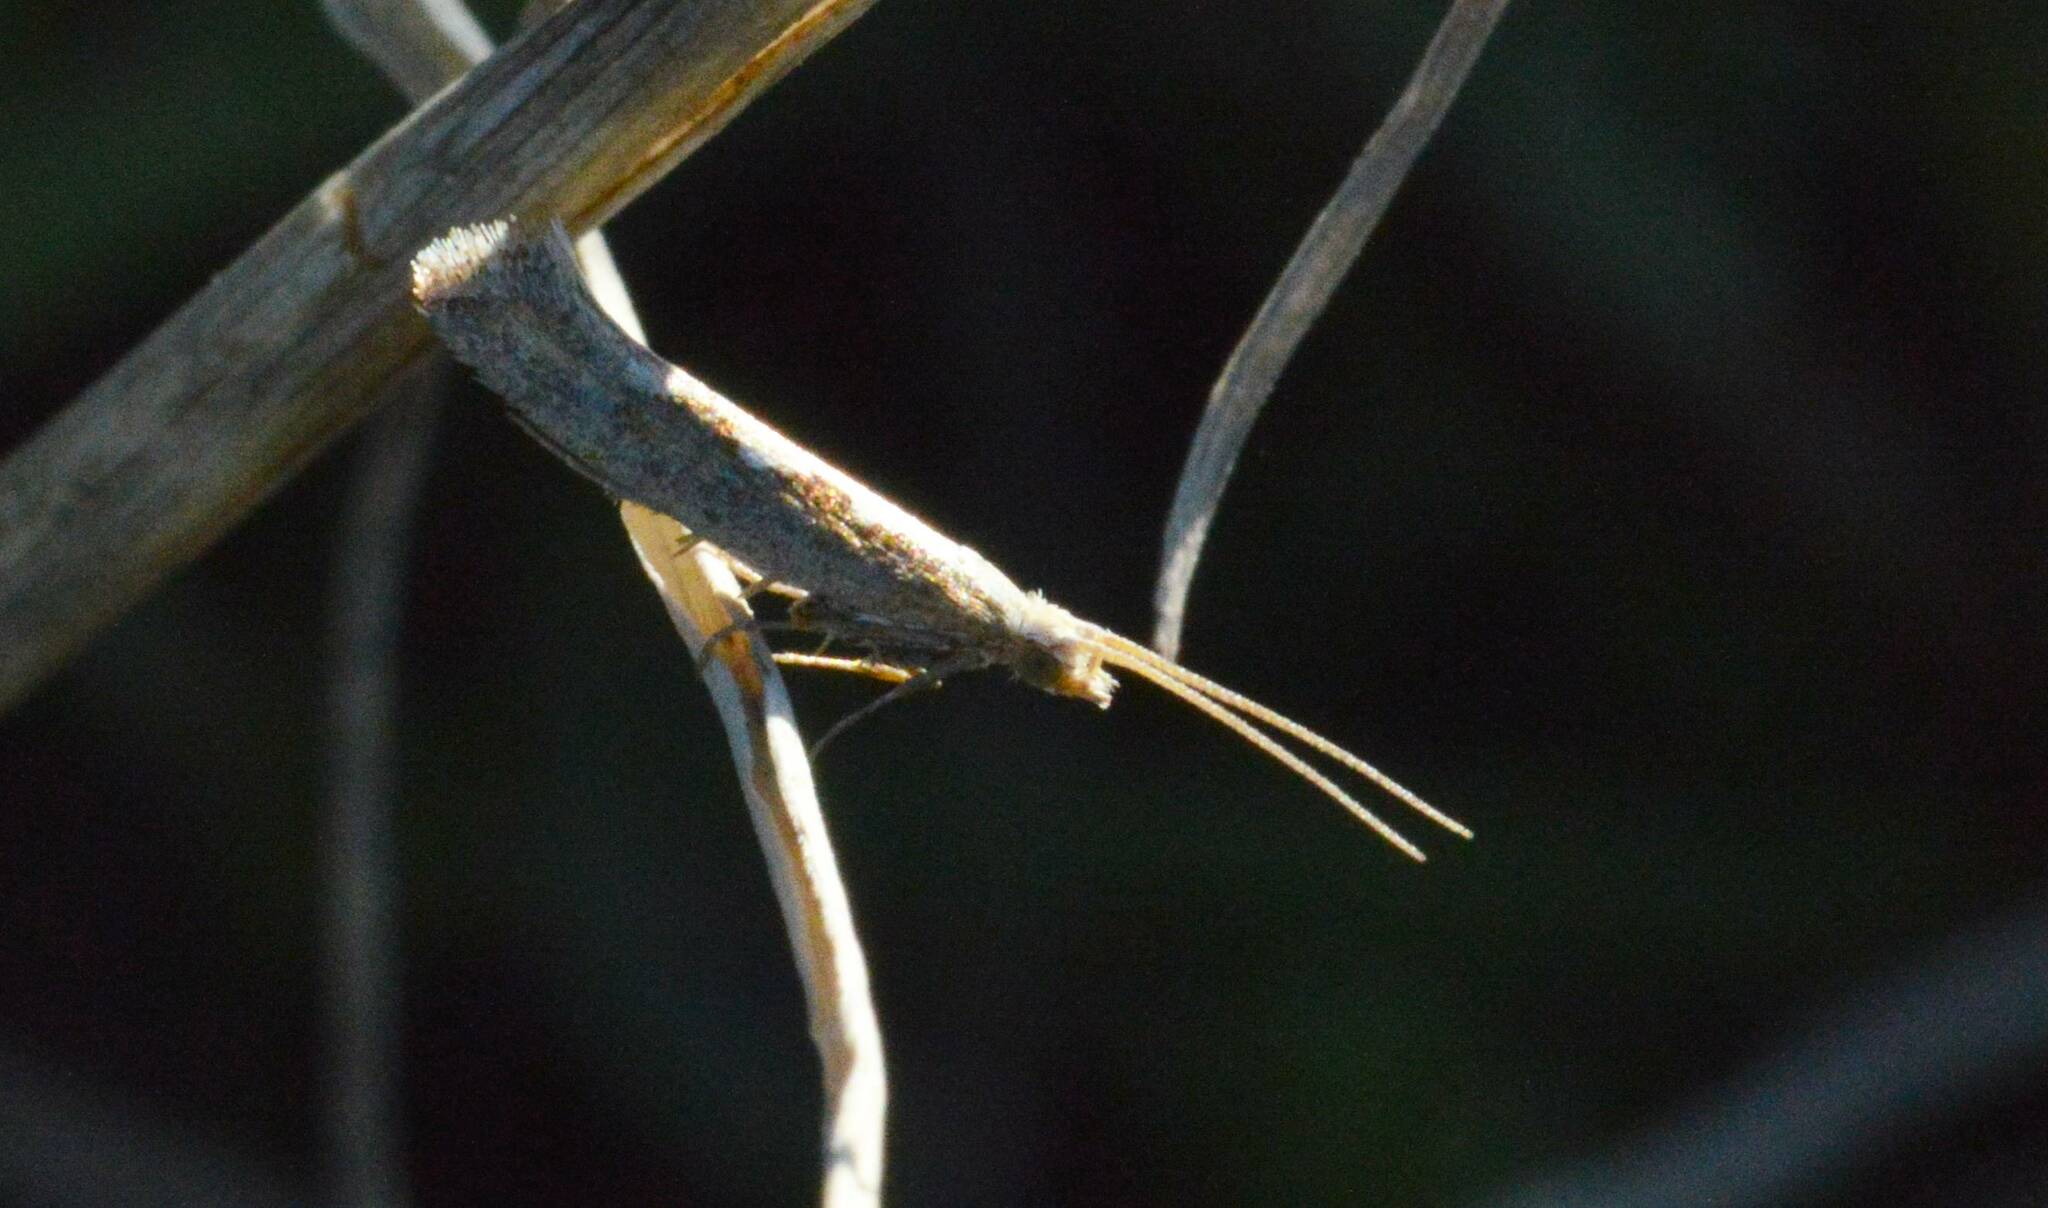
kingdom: Animalia
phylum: Arthropoda
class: Insecta
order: Lepidoptera
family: Plutellidae
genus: Plutella
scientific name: Plutella xylostella
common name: Diamond-back moth
